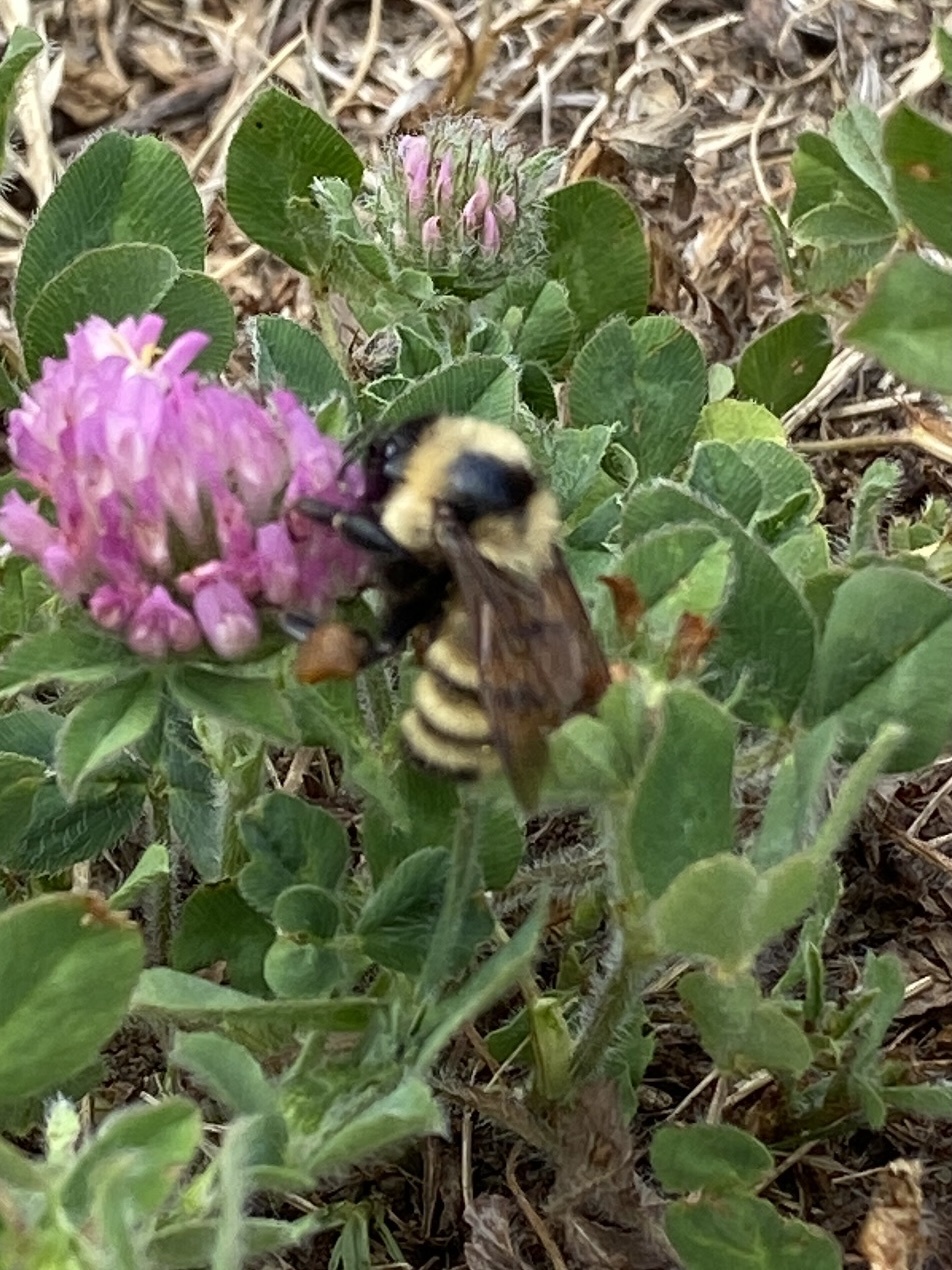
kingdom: Animalia
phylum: Arthropoda
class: Insecta
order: Hymenoptera
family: Apidae
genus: Bombus
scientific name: Bombus fervidus
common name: Yellow bumble bee
